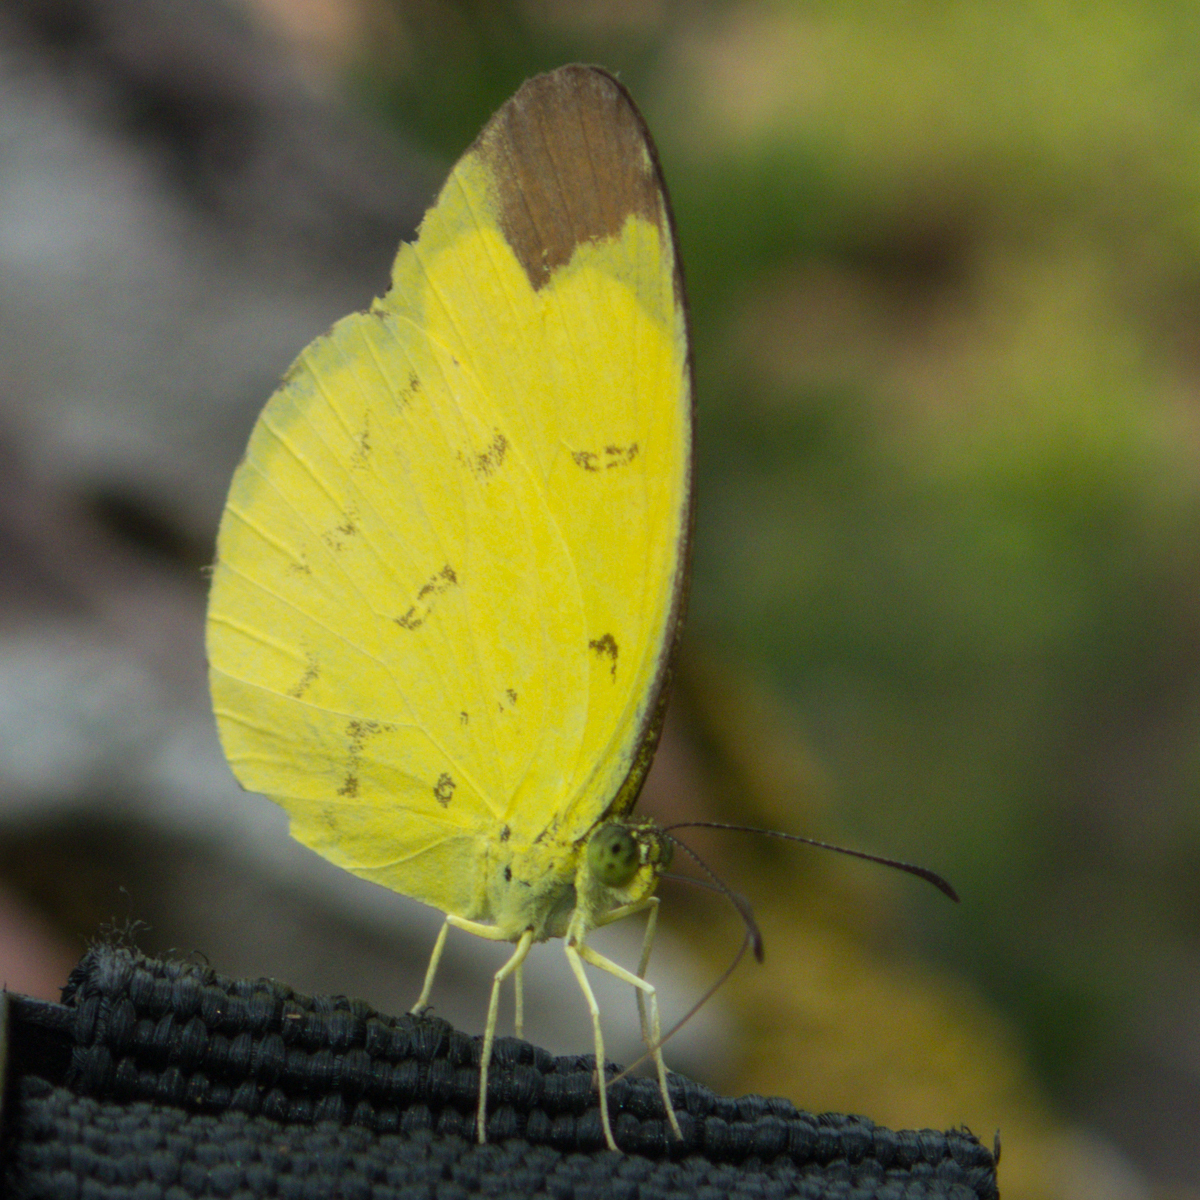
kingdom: Animalia
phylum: Arthropoda
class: Insecta
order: Lepidoptera
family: Pieridae
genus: Eurema
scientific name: Eurema sari
